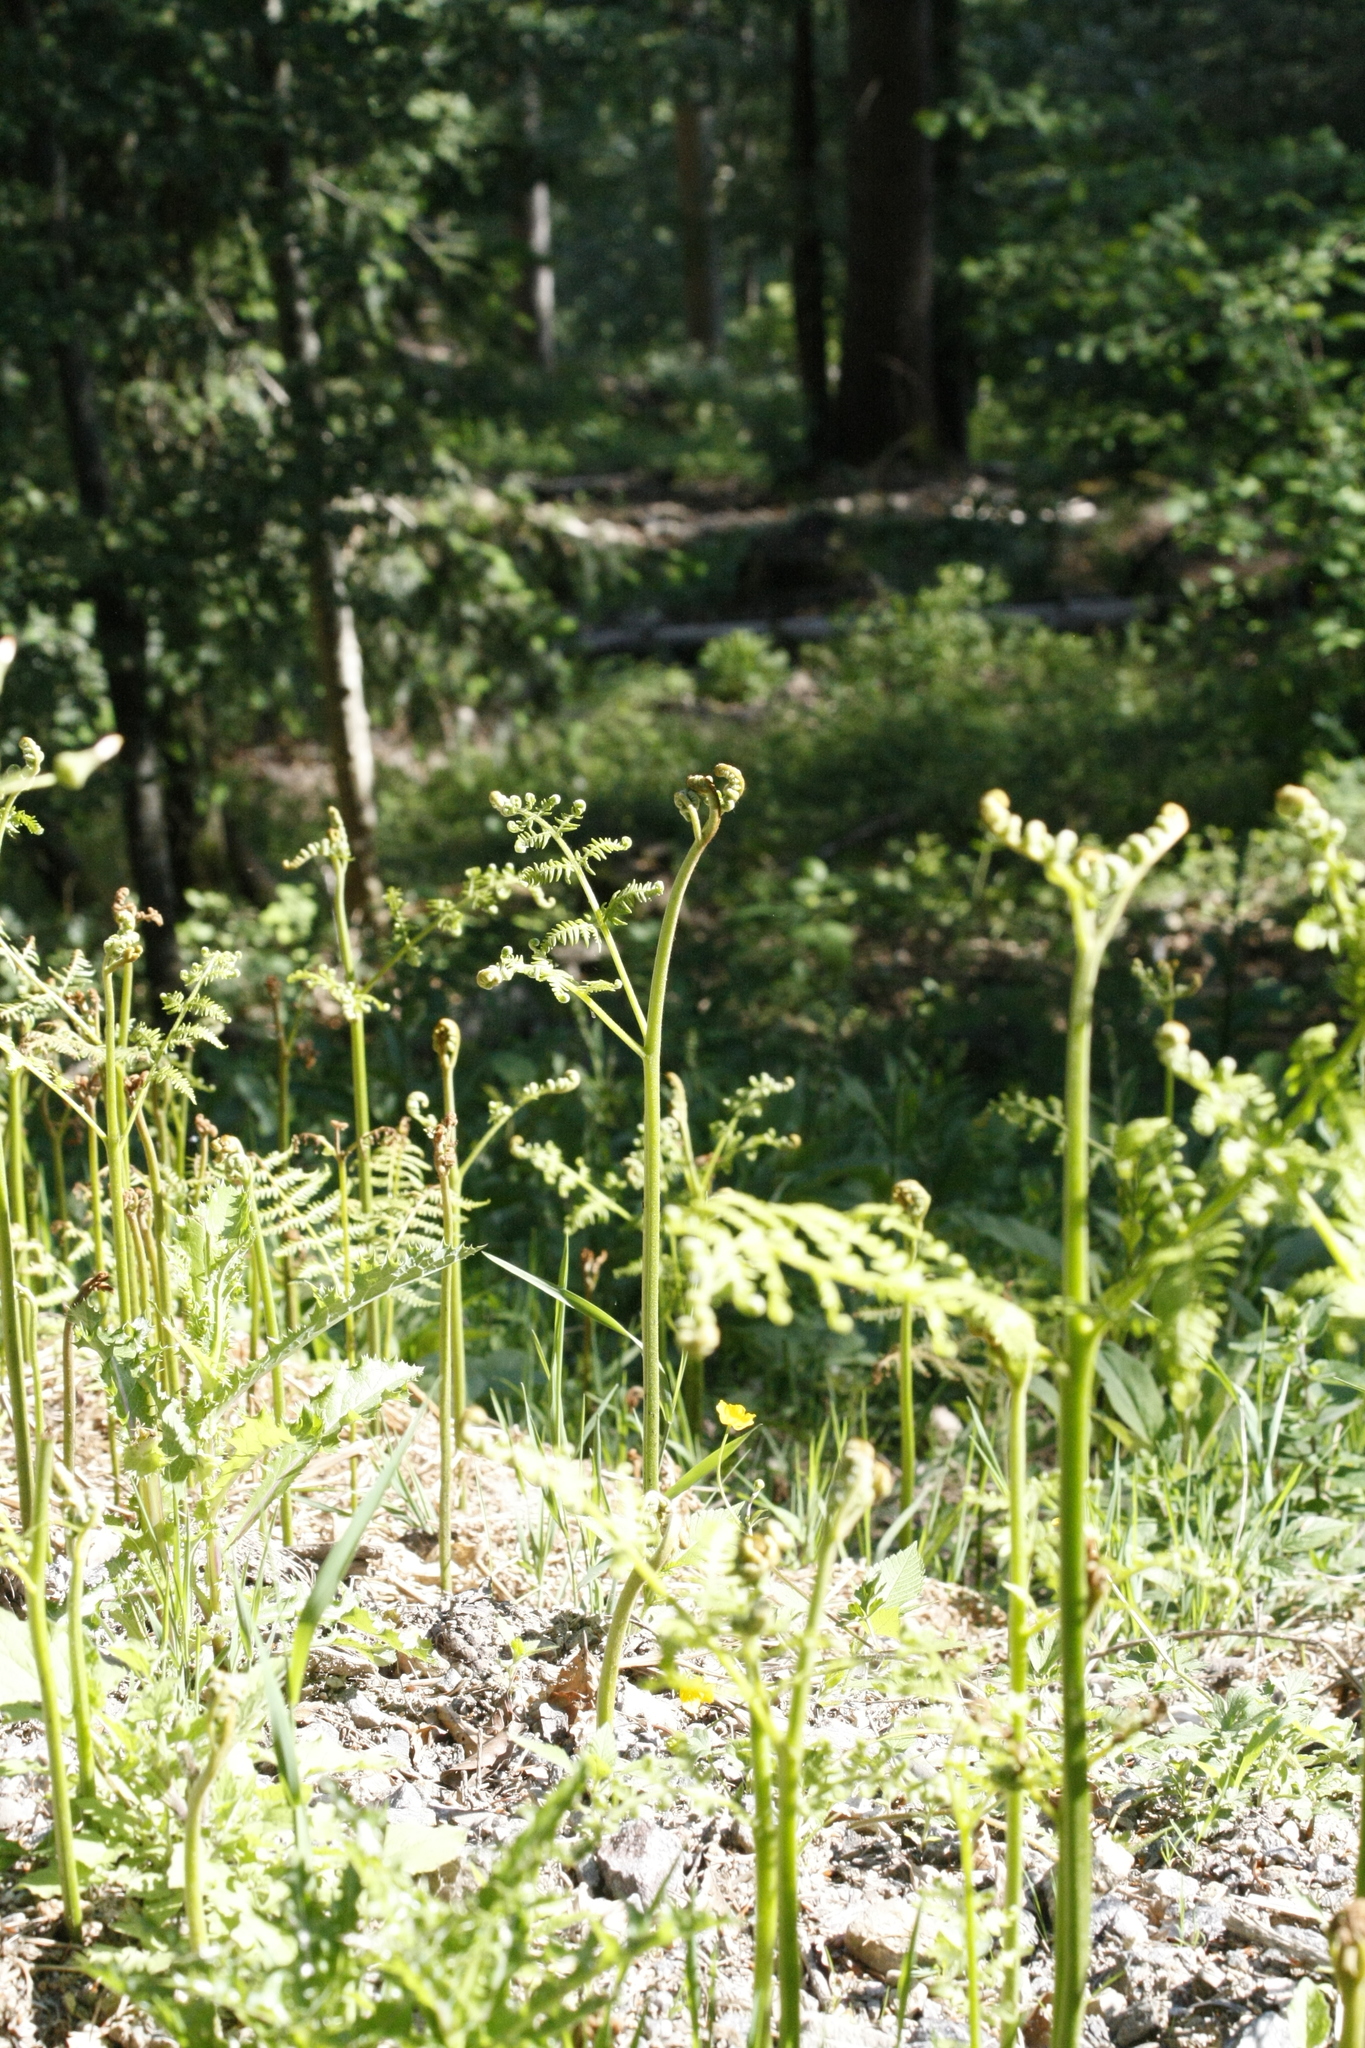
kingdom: Plantae
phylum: Tracheophyta
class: Polypodiopsida
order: Polypodiales
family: Dennstaedtiaceae
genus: Pteridium
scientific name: Pteridium aquilinum
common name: Bracken
